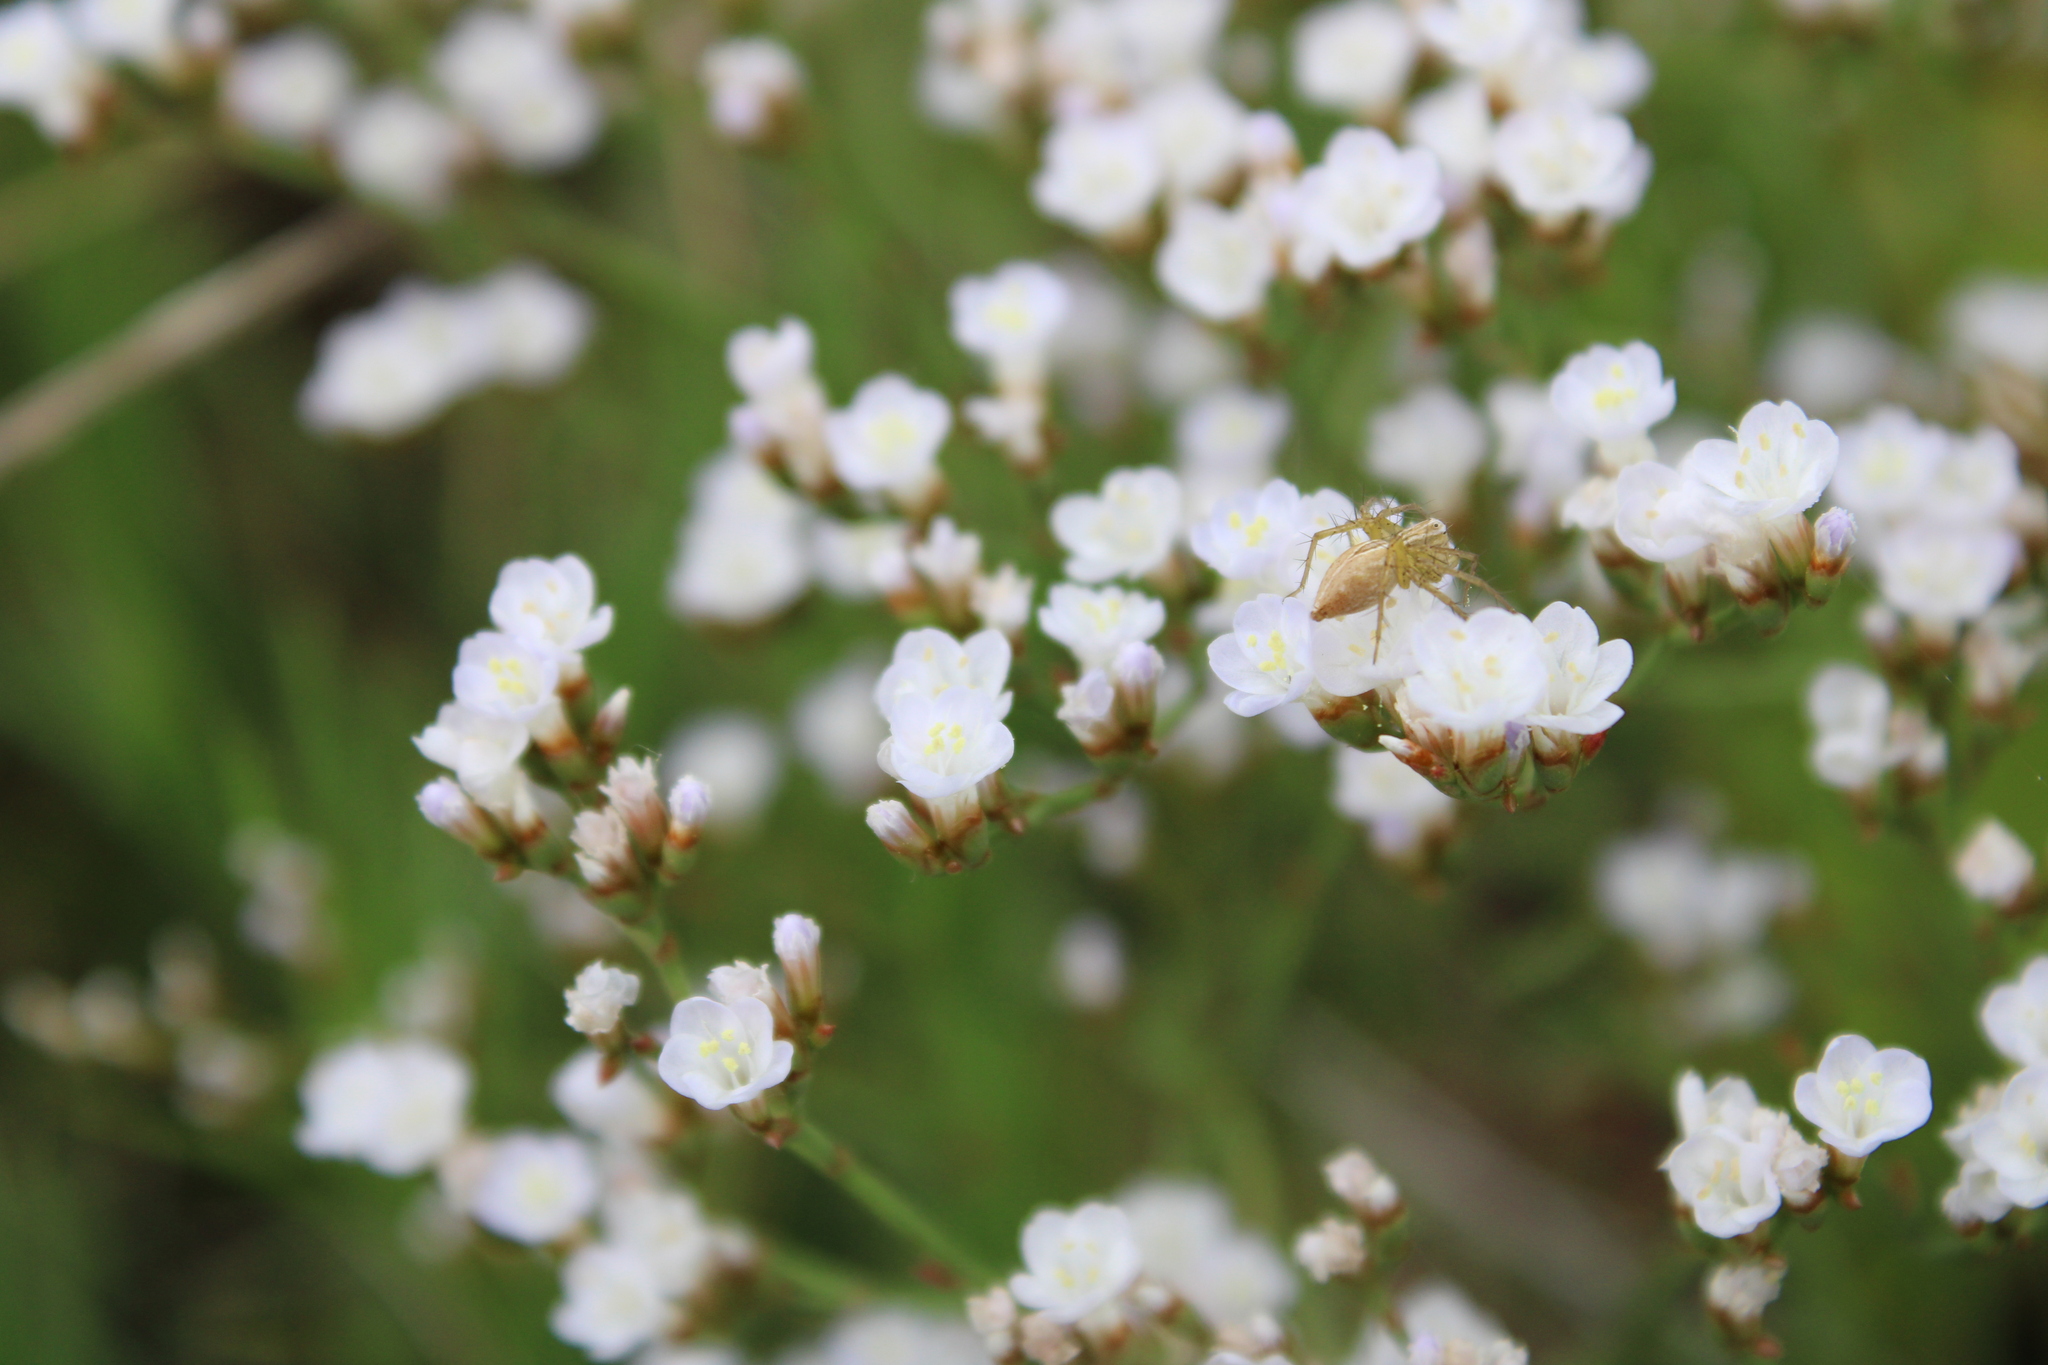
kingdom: Animalia
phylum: Arthropoda
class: Arachnida
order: Araneae
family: Oxyopidae
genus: Oxyopes
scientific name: Oxyopes salticus
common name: Lynx spiders
